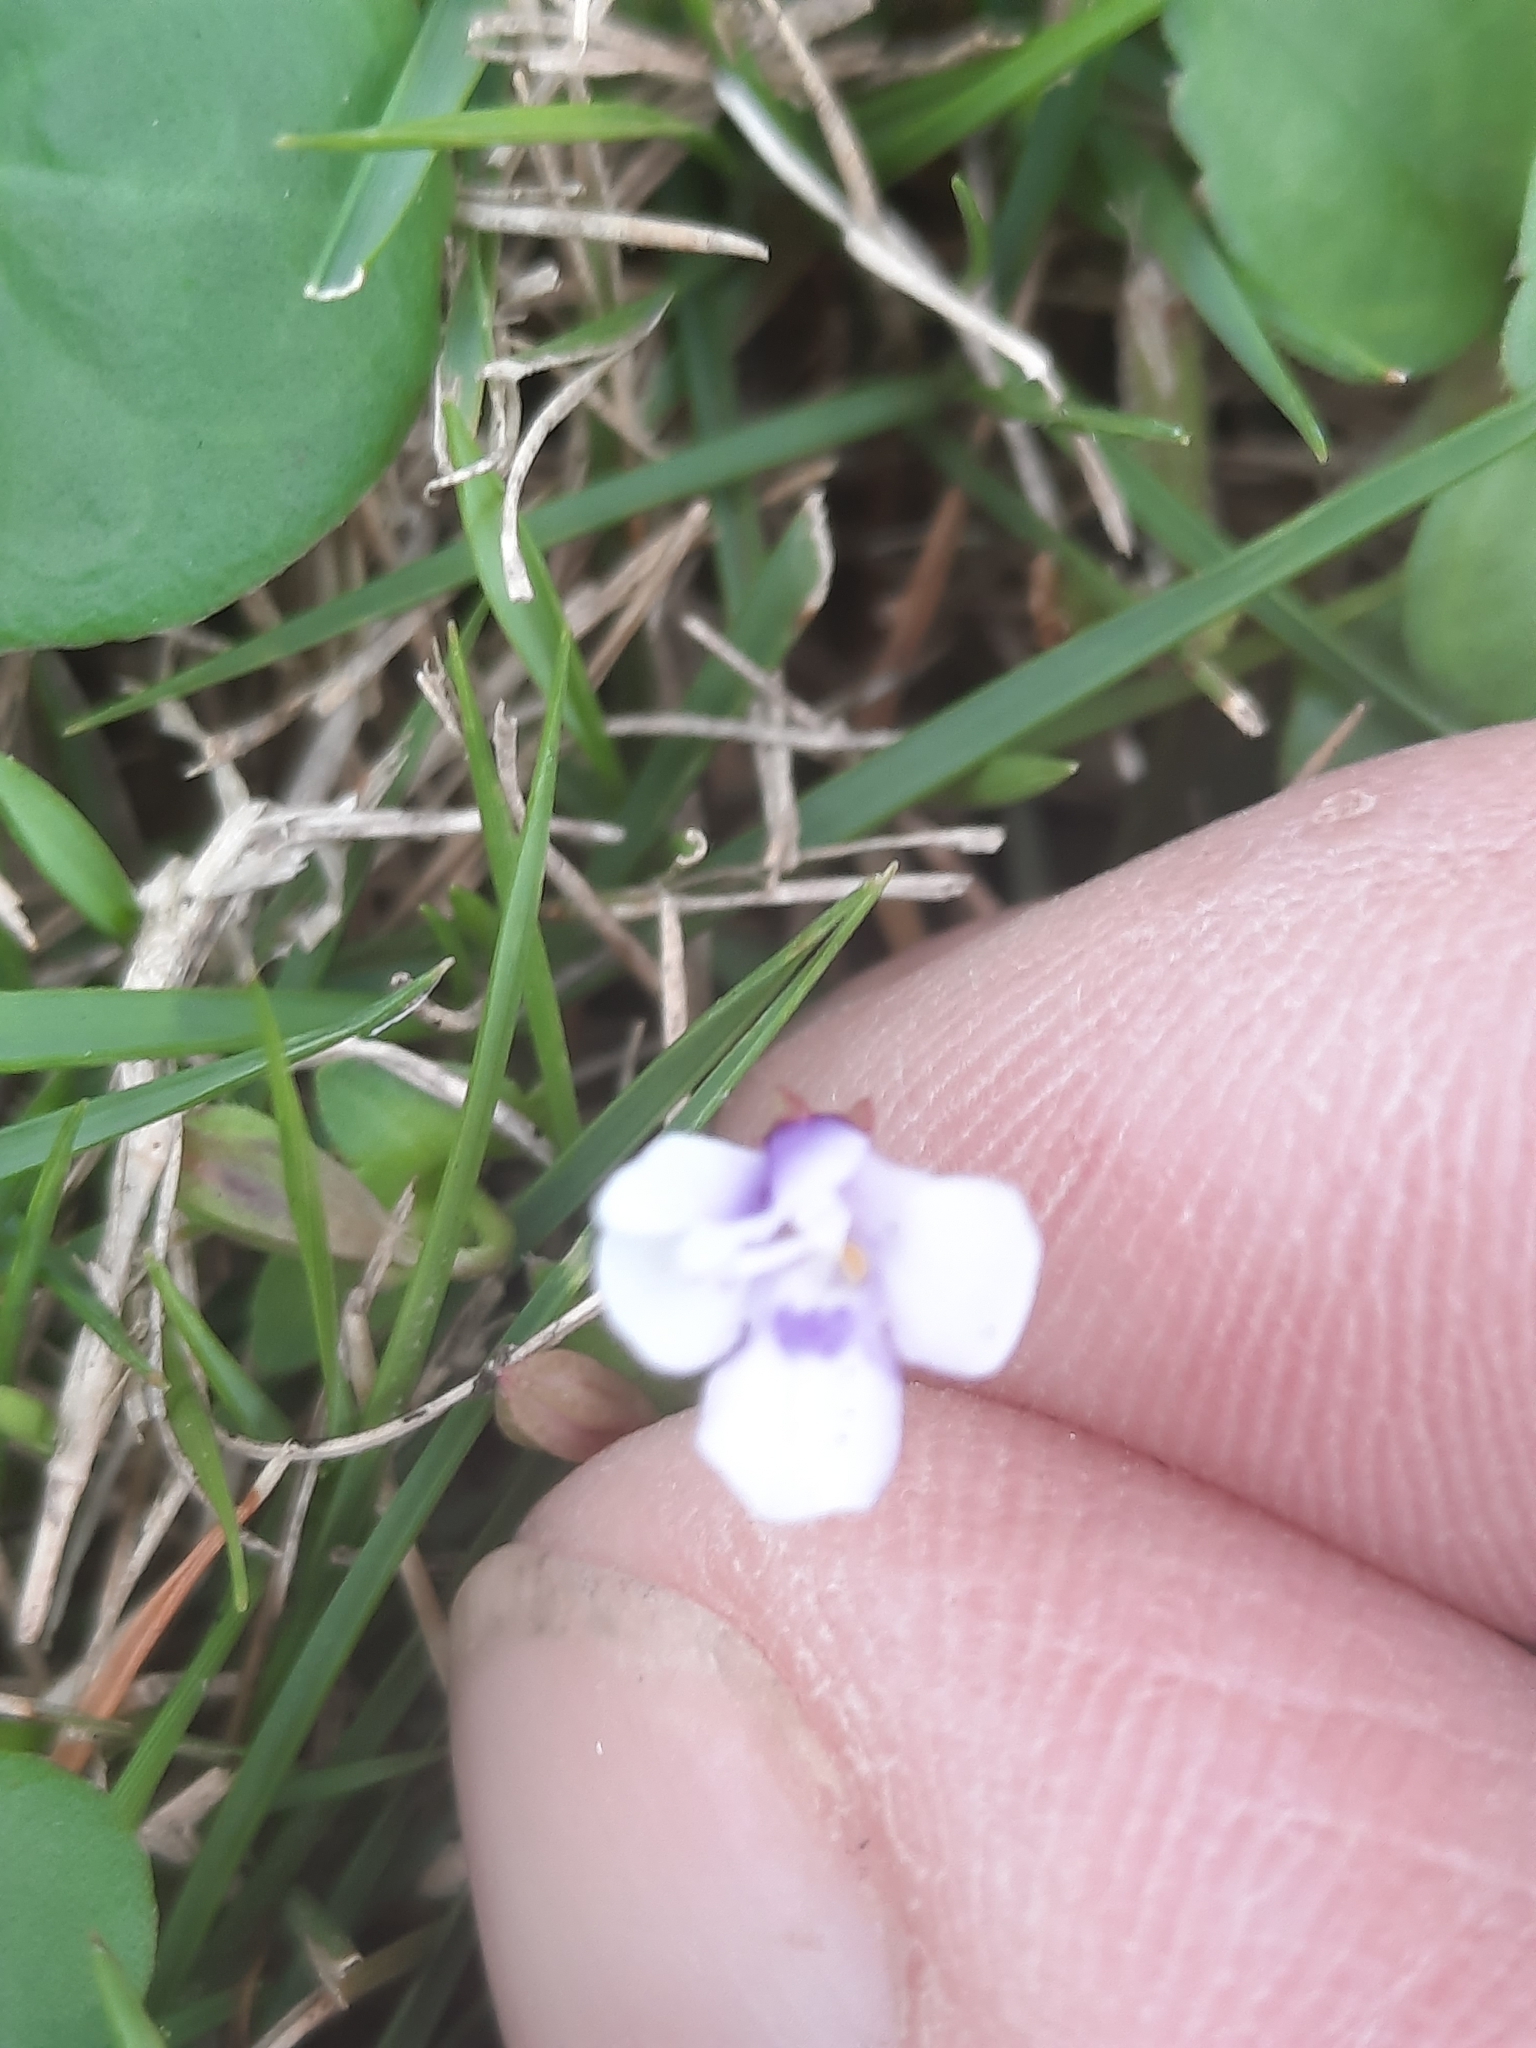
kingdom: Plantae
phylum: Tracheophyta
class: Magnoliopsida
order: Lamiales
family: Linderniaceae
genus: Torenia
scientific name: Torenia crustacea
